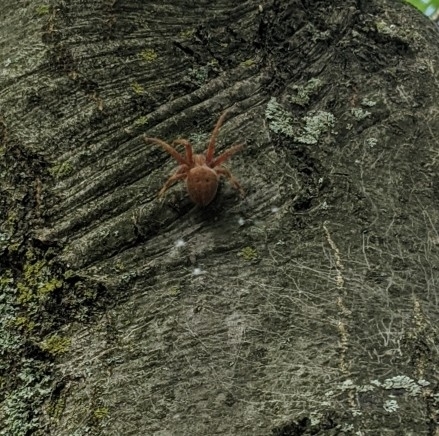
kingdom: Animalia
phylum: Arthropoda
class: Arachnida
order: Araneae
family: Araneidae
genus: Neoscona
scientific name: Neoscona crucifera
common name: Spotted orbweaver
